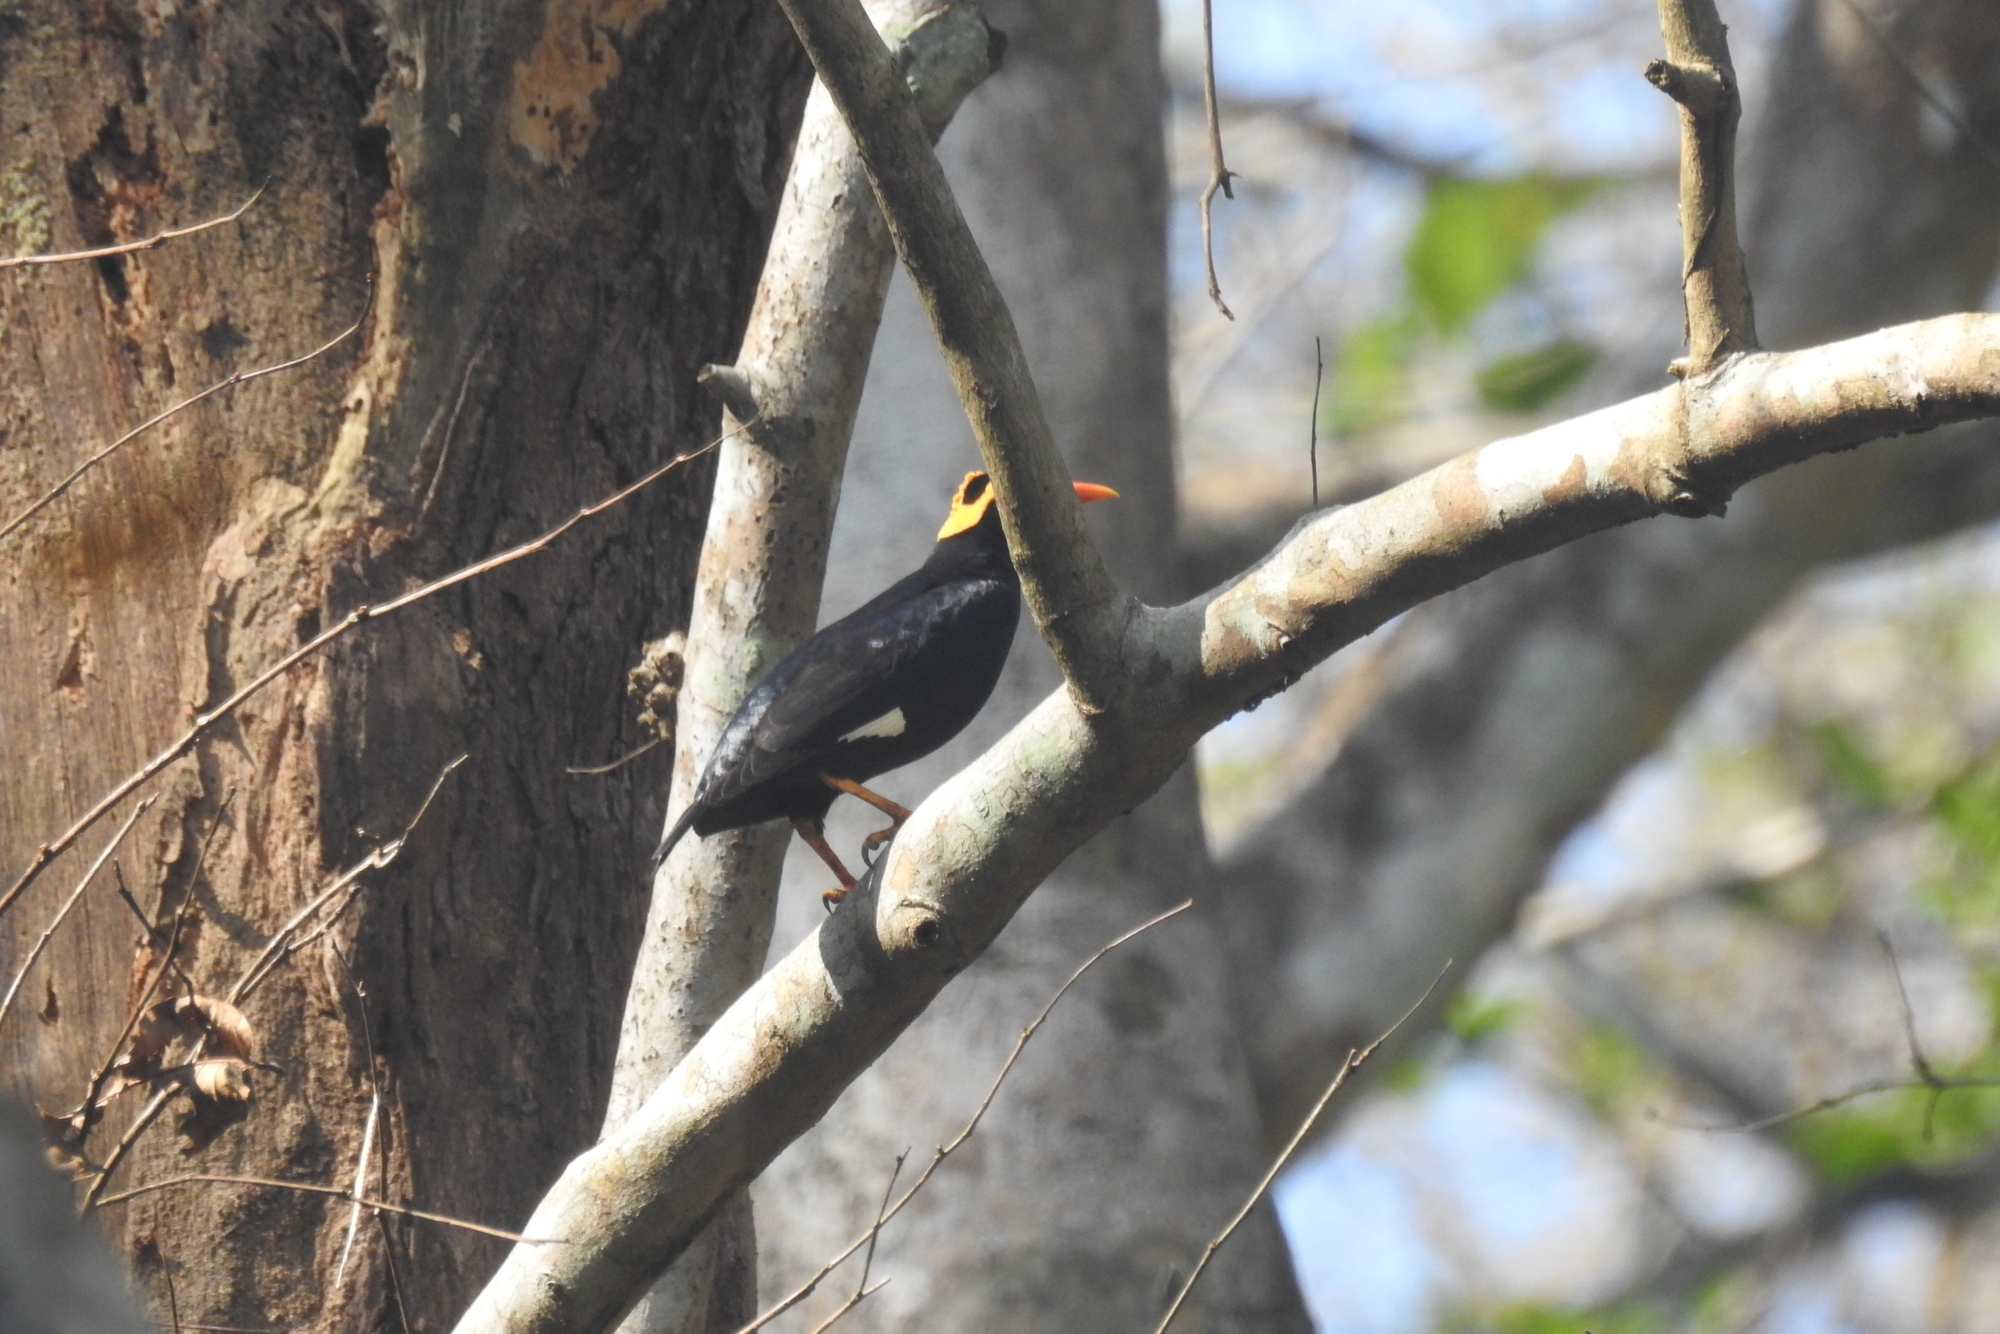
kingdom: Animalia
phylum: Chordata
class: Aves
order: Passeriformes
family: Sturnidae
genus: Gracula
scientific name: Gracula indica
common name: Southern hill myna
